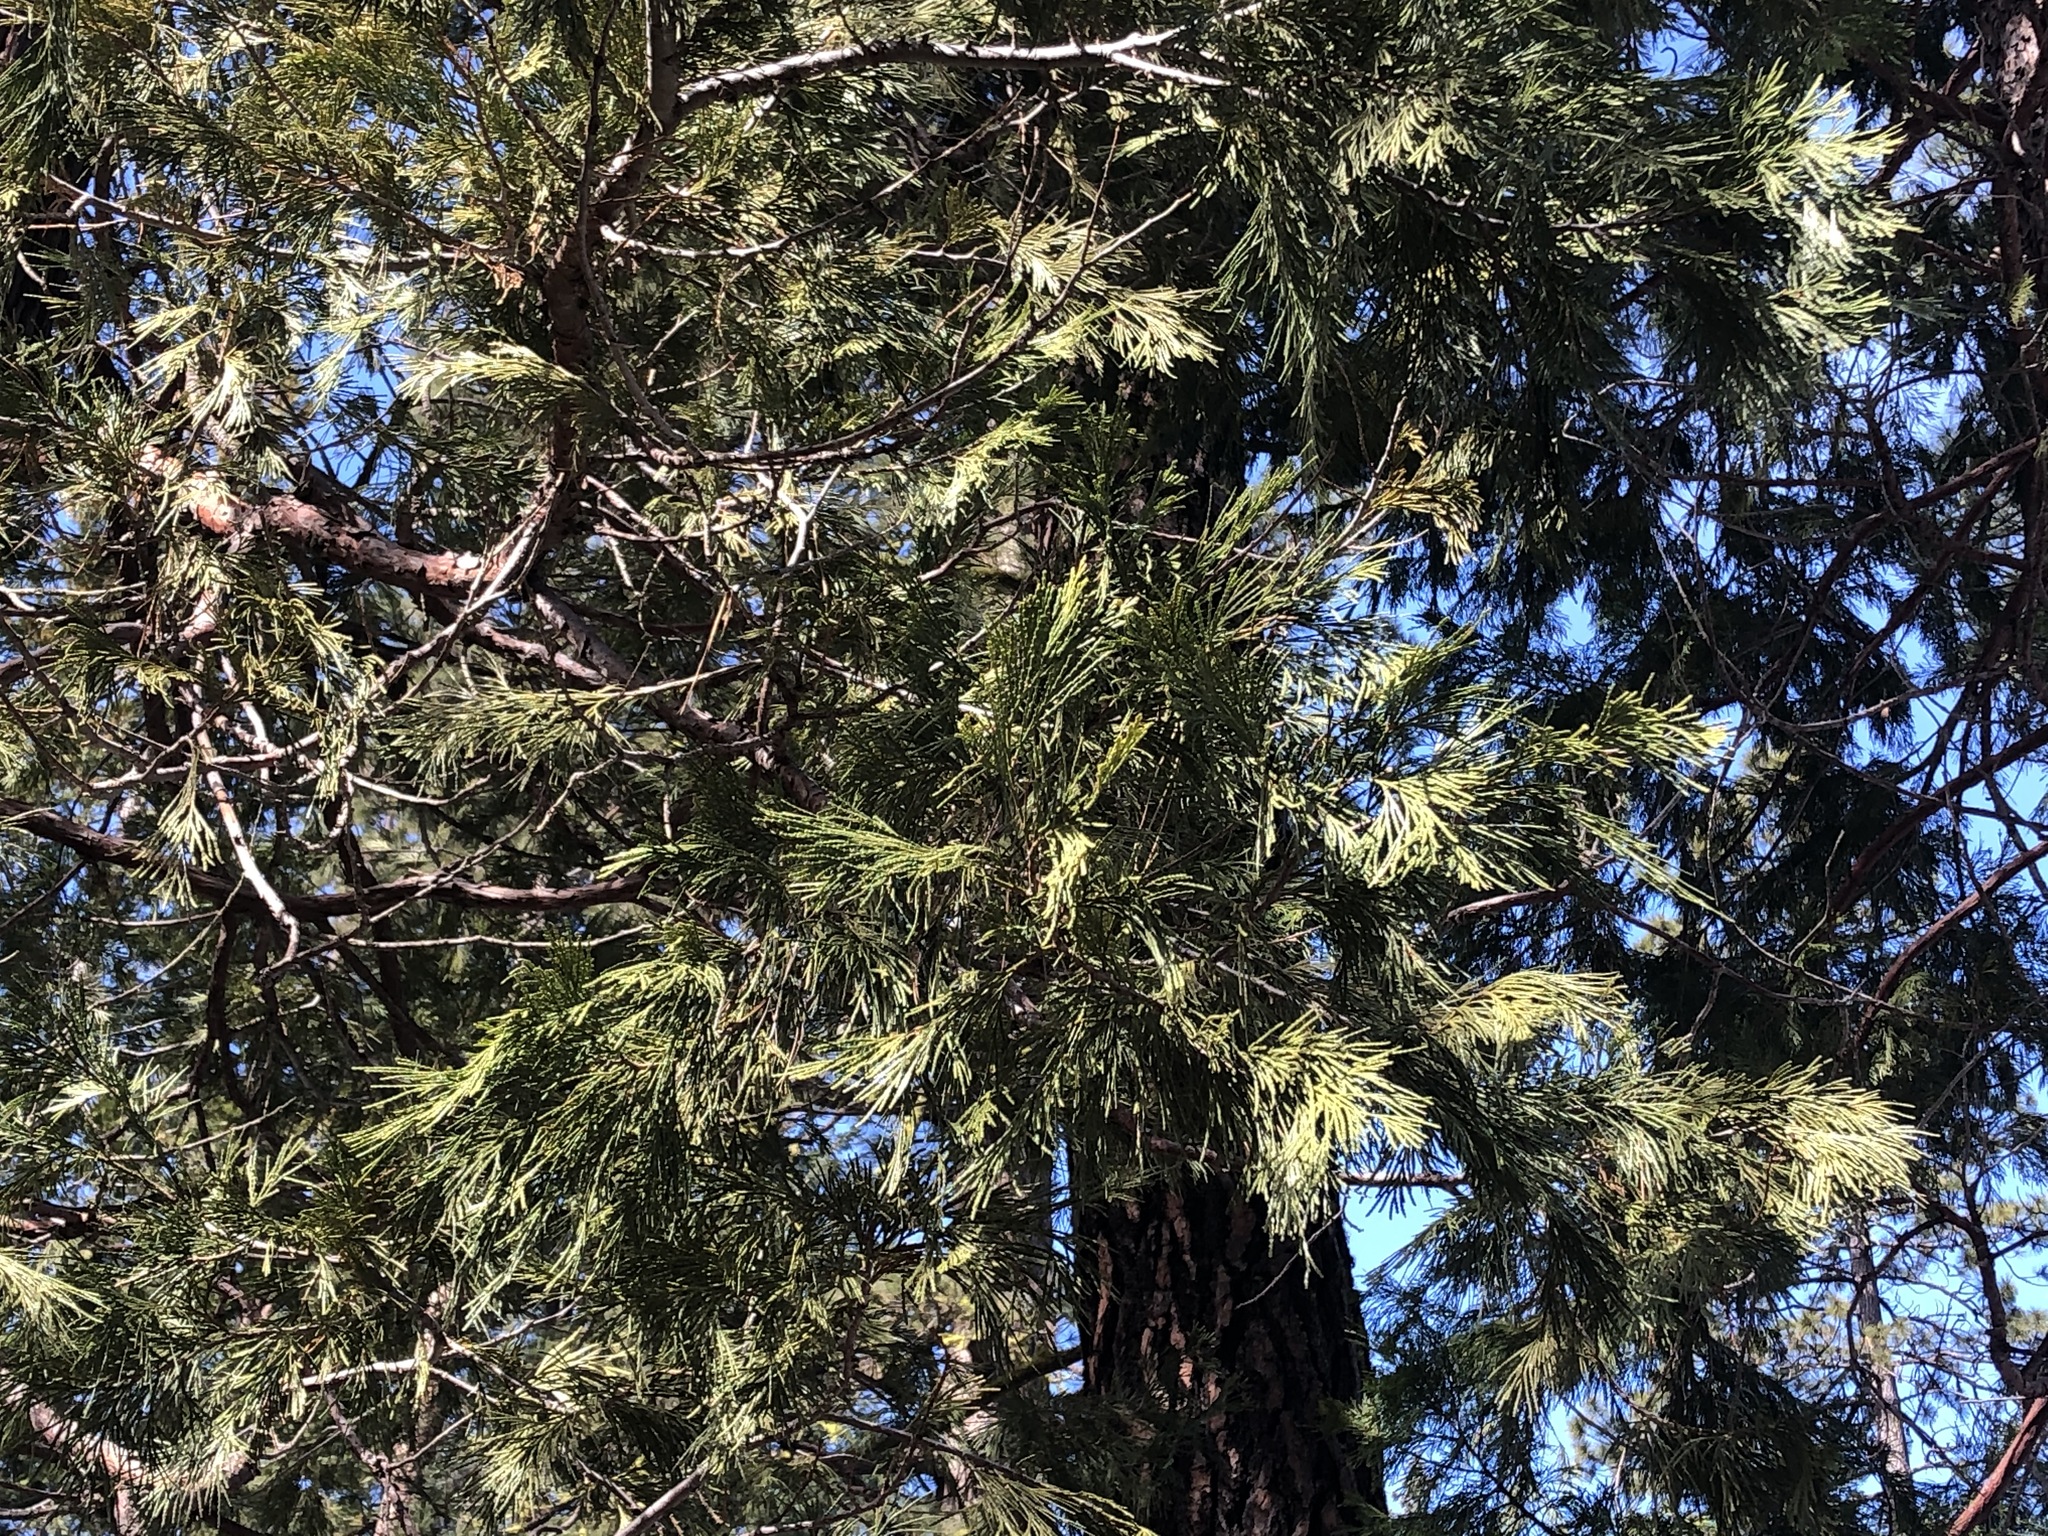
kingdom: Plantae
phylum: Tracheophyta
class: Pinopsida
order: Pinales
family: Cupressaceae
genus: Calocedrus
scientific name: Calocedrus decurrens
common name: Californian incense-cedar
